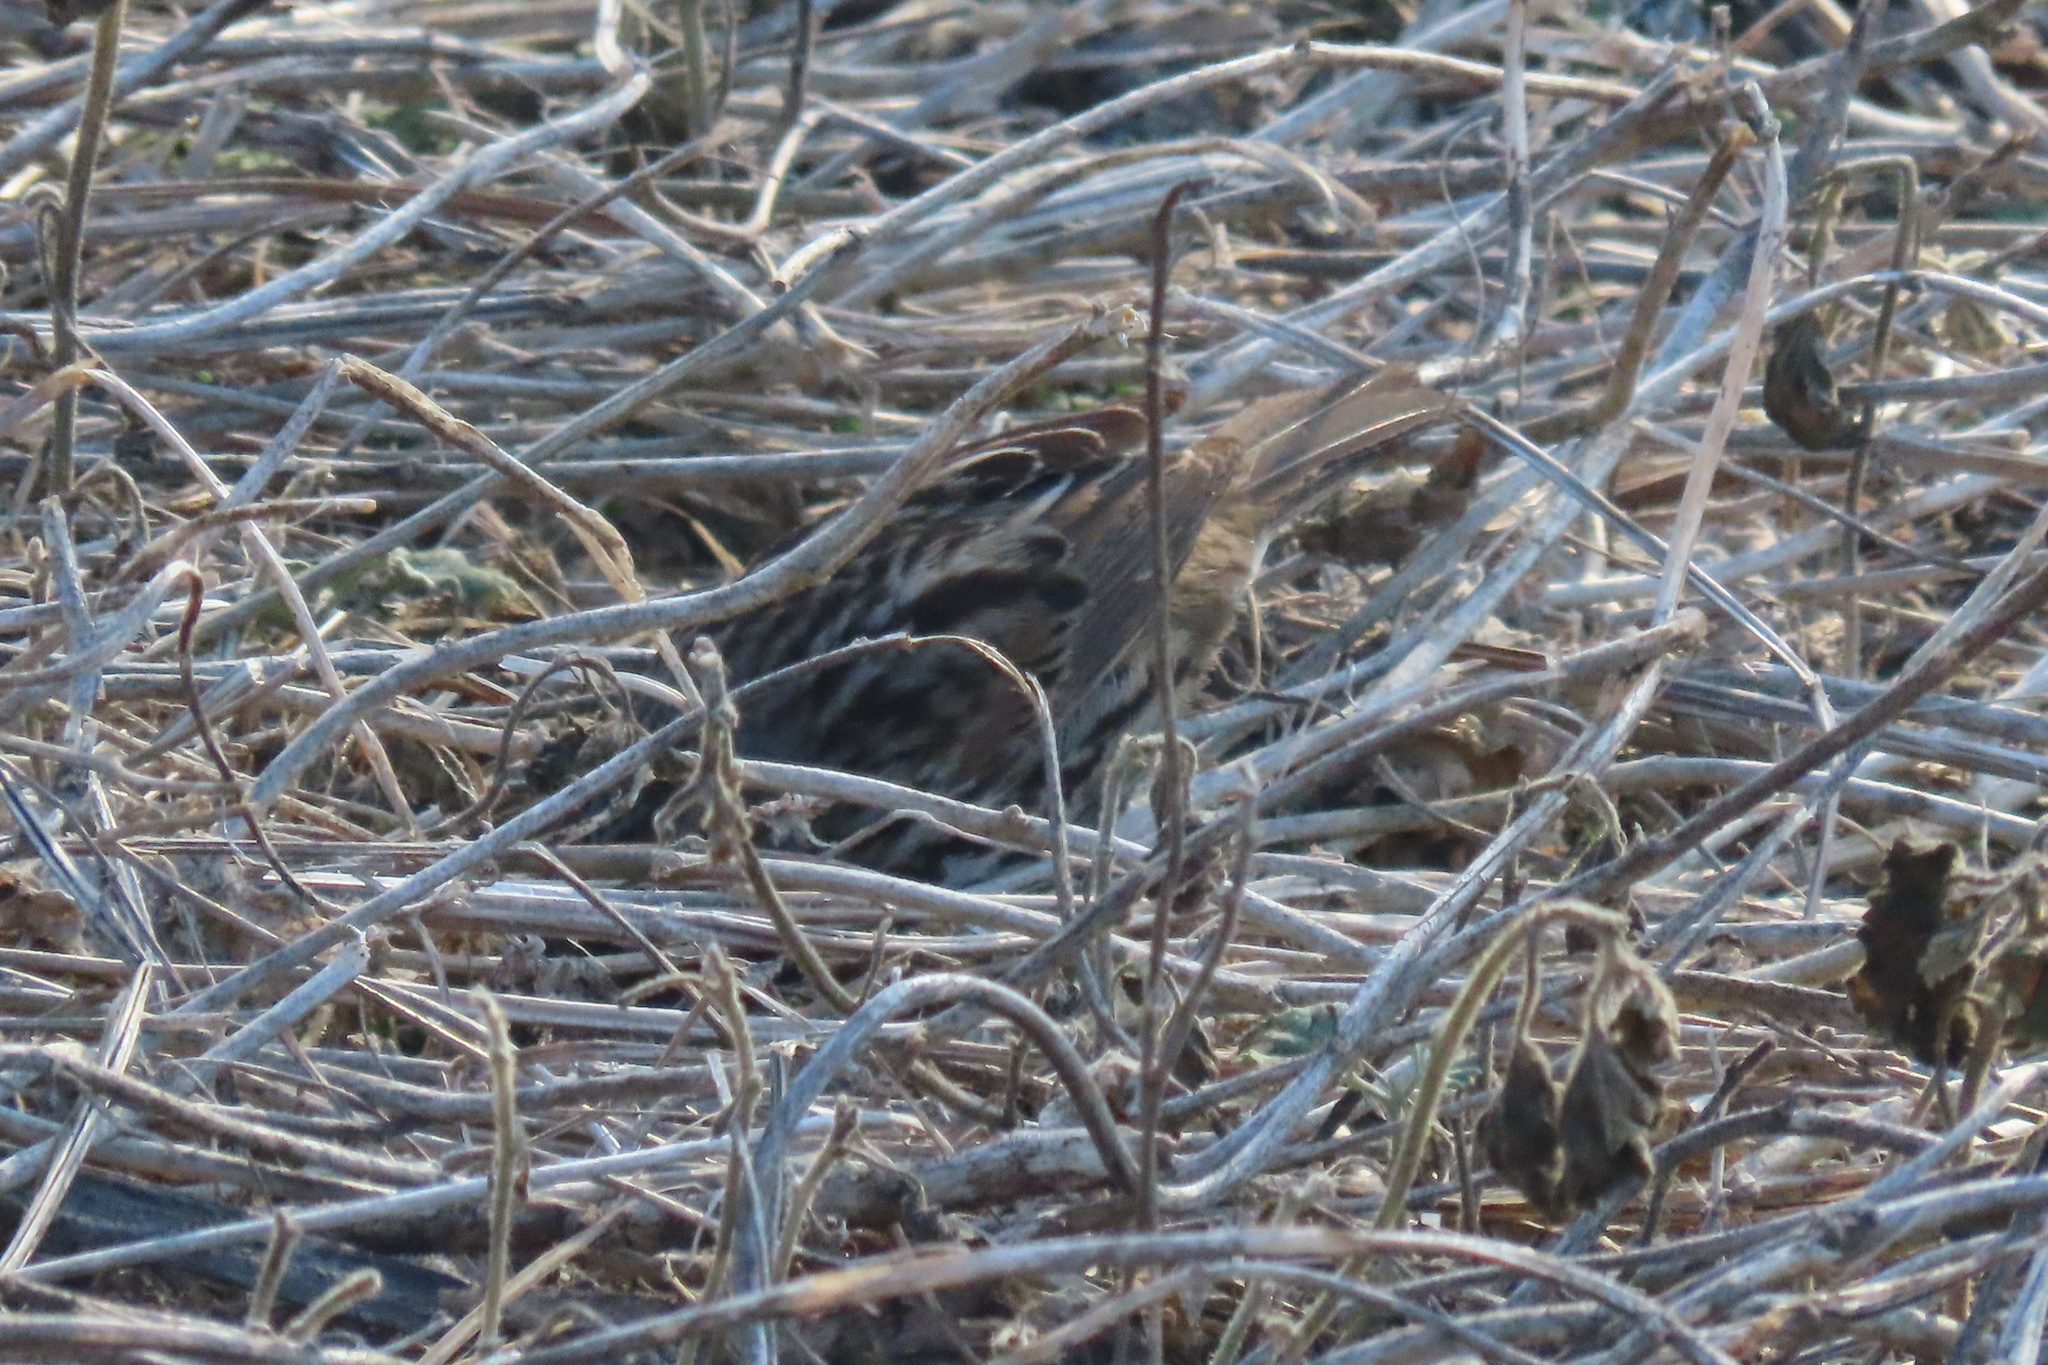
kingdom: Animalia
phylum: Chordata
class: Aves
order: Passeriformes
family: Passerellidae
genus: Melospiza
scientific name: Melospiza melodia
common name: Song sparrow
